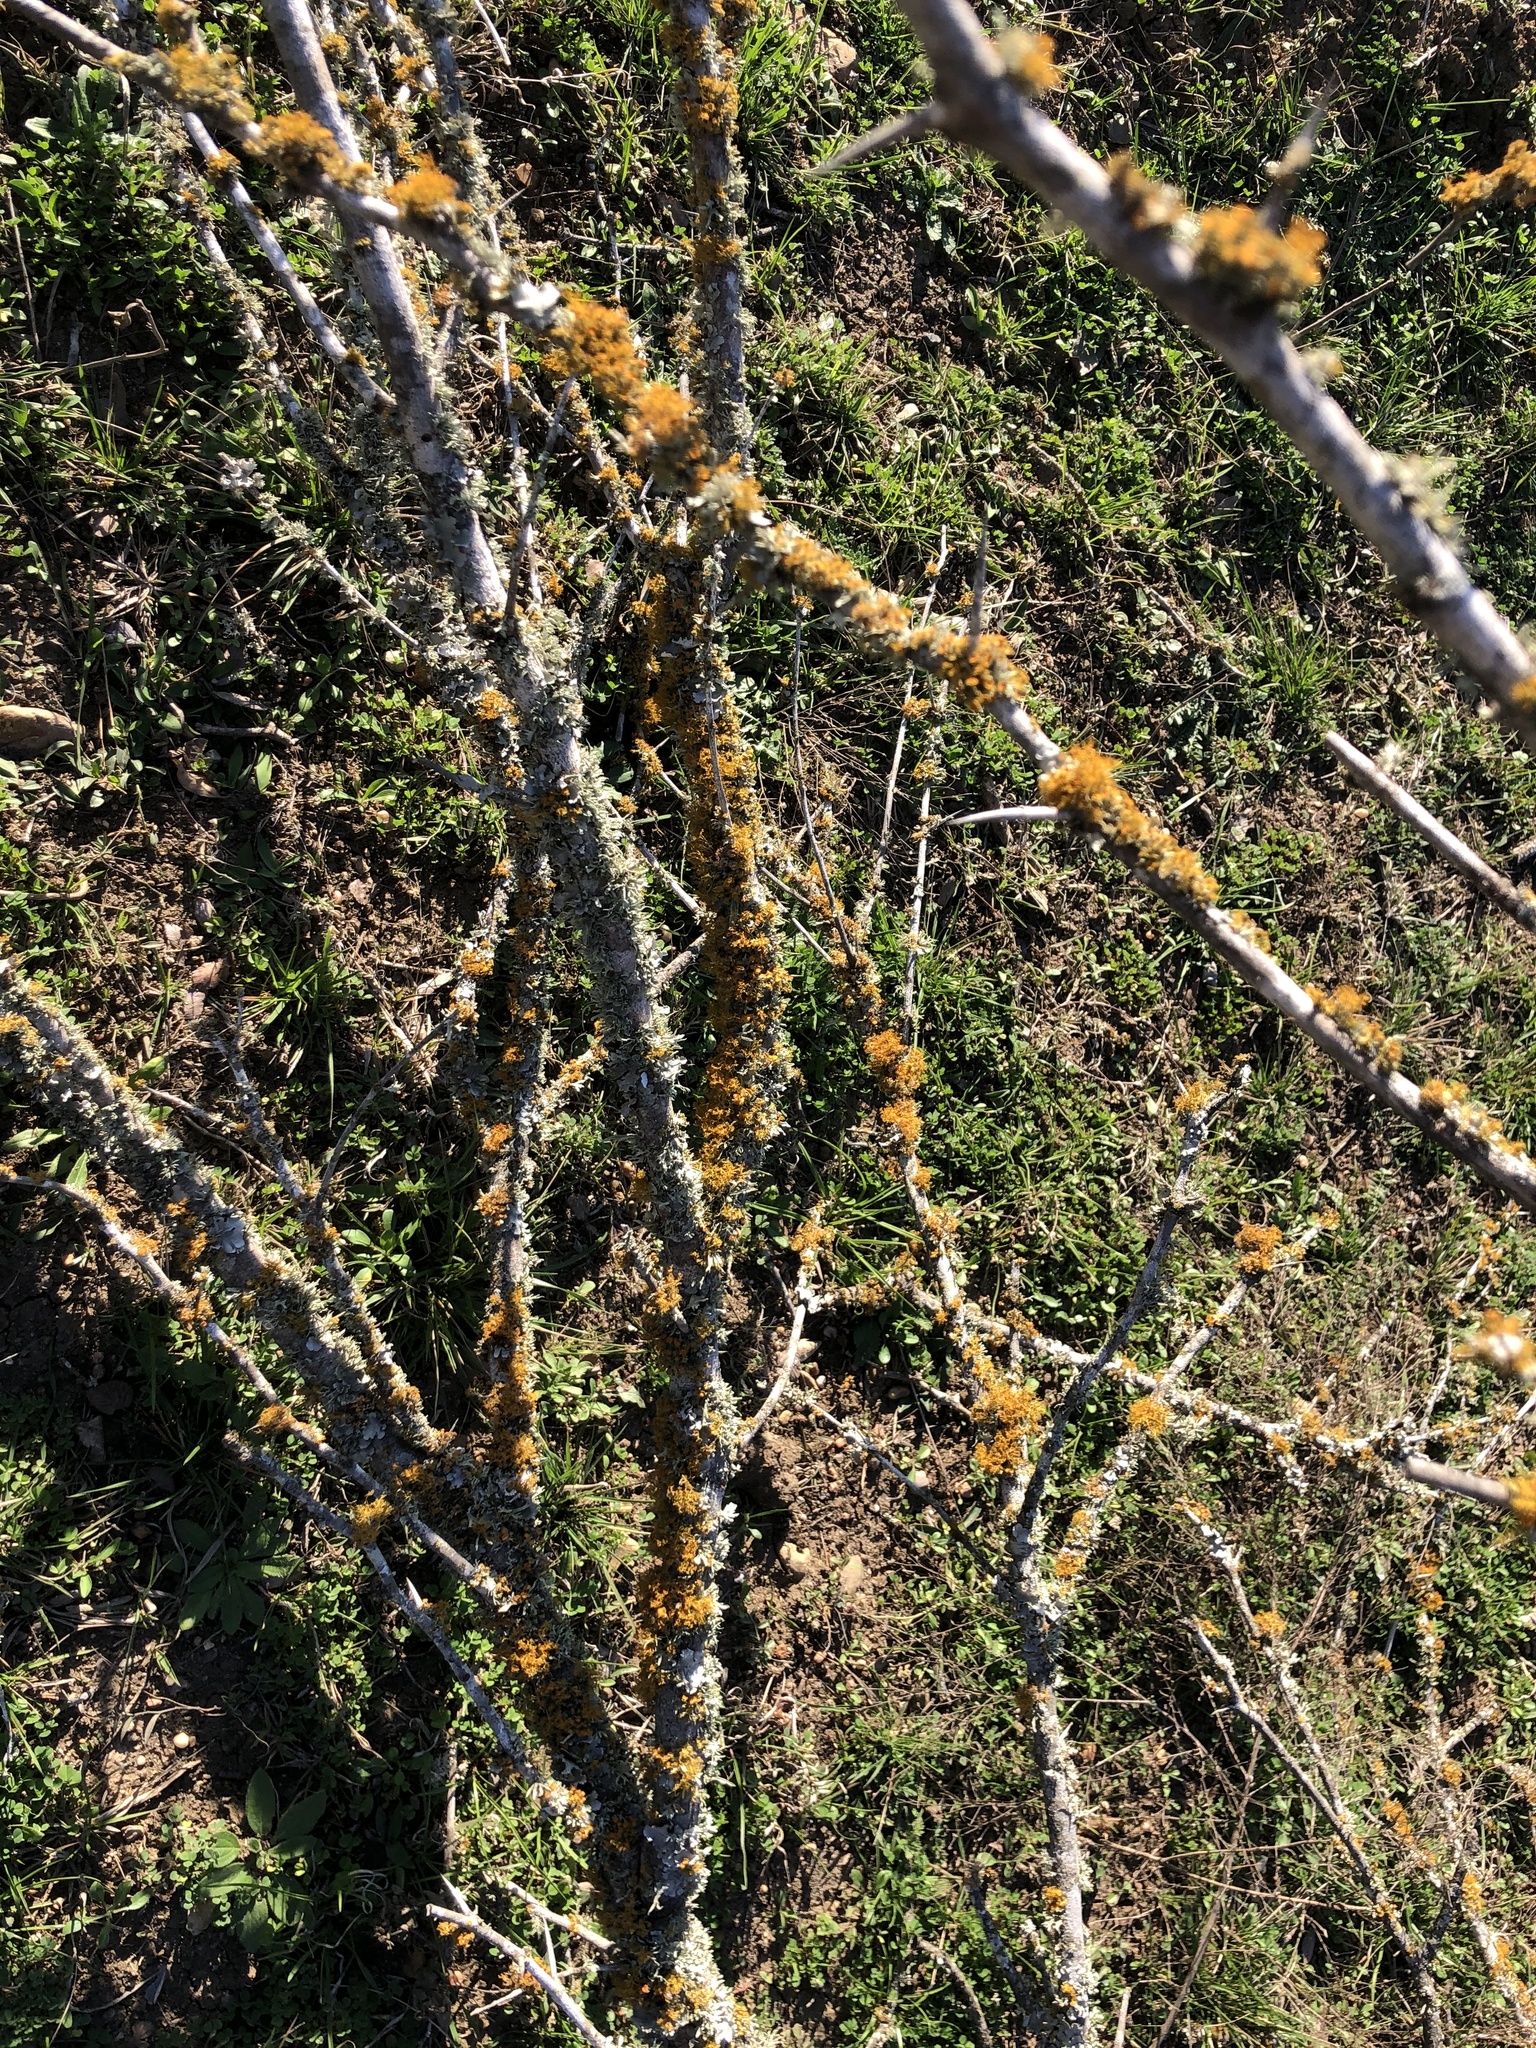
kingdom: Fungi
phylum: Ascomycota
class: Lecanoromycetes
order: Teloschistales
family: Teloschistaceae
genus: Niorma
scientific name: Niorma chrysophthalma
